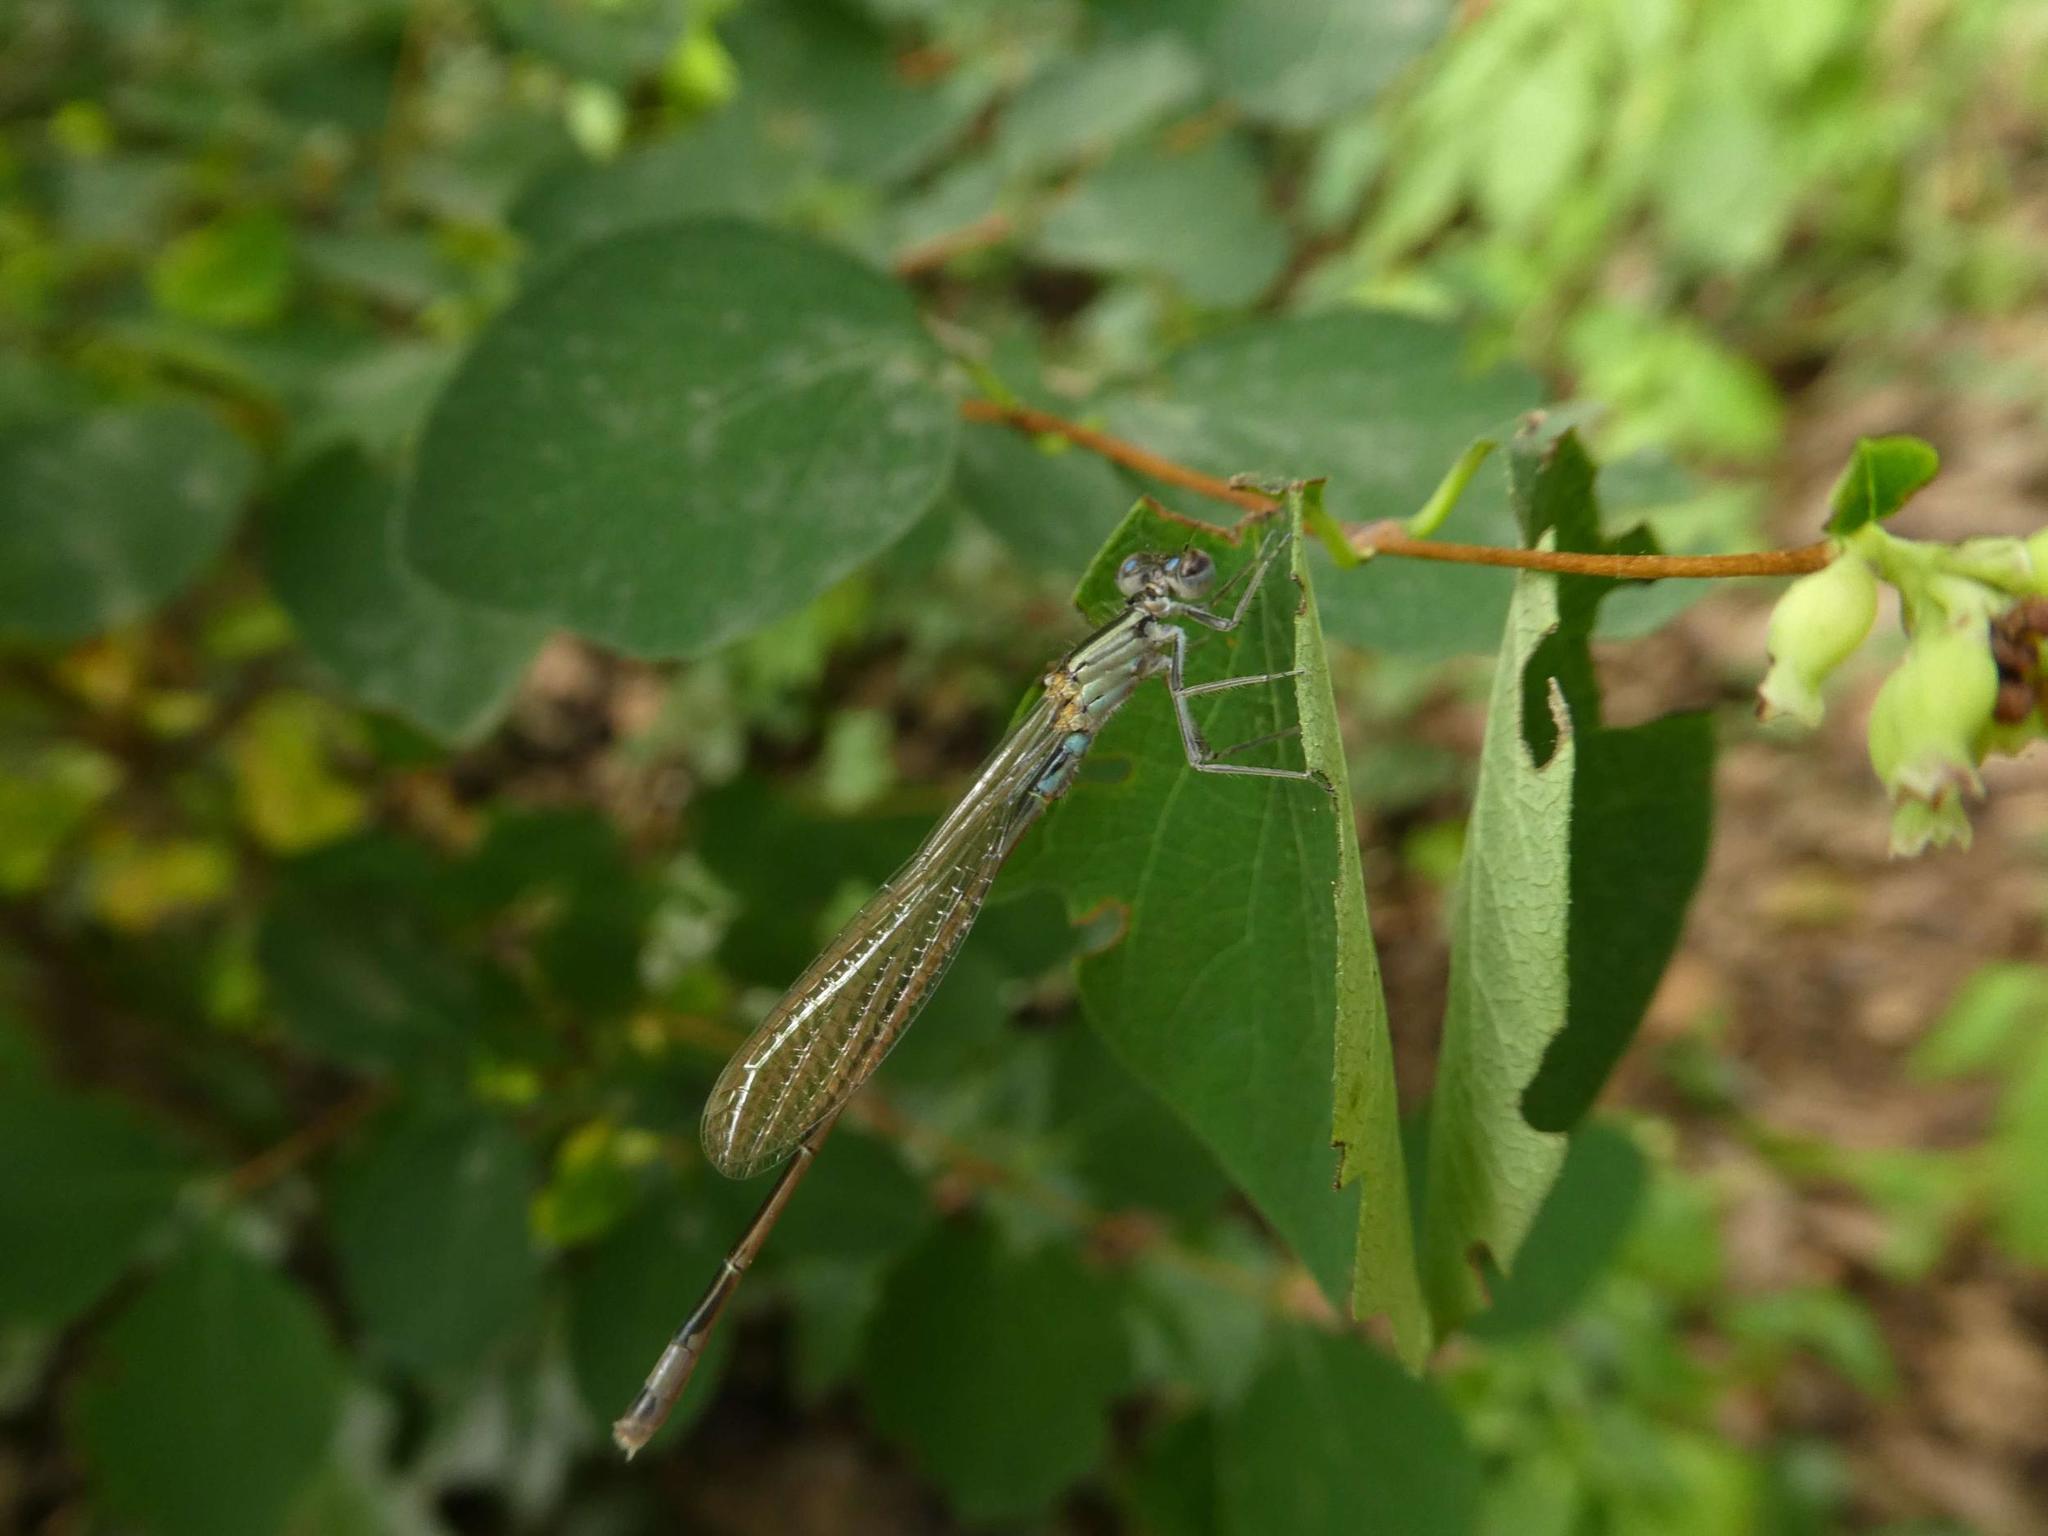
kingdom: Animalia
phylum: Arthropoda
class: Insecta
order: Odonata
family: Coenagrionidae
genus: Ischnura
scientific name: Ischnura elegans
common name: Blue-tailed damselfly
